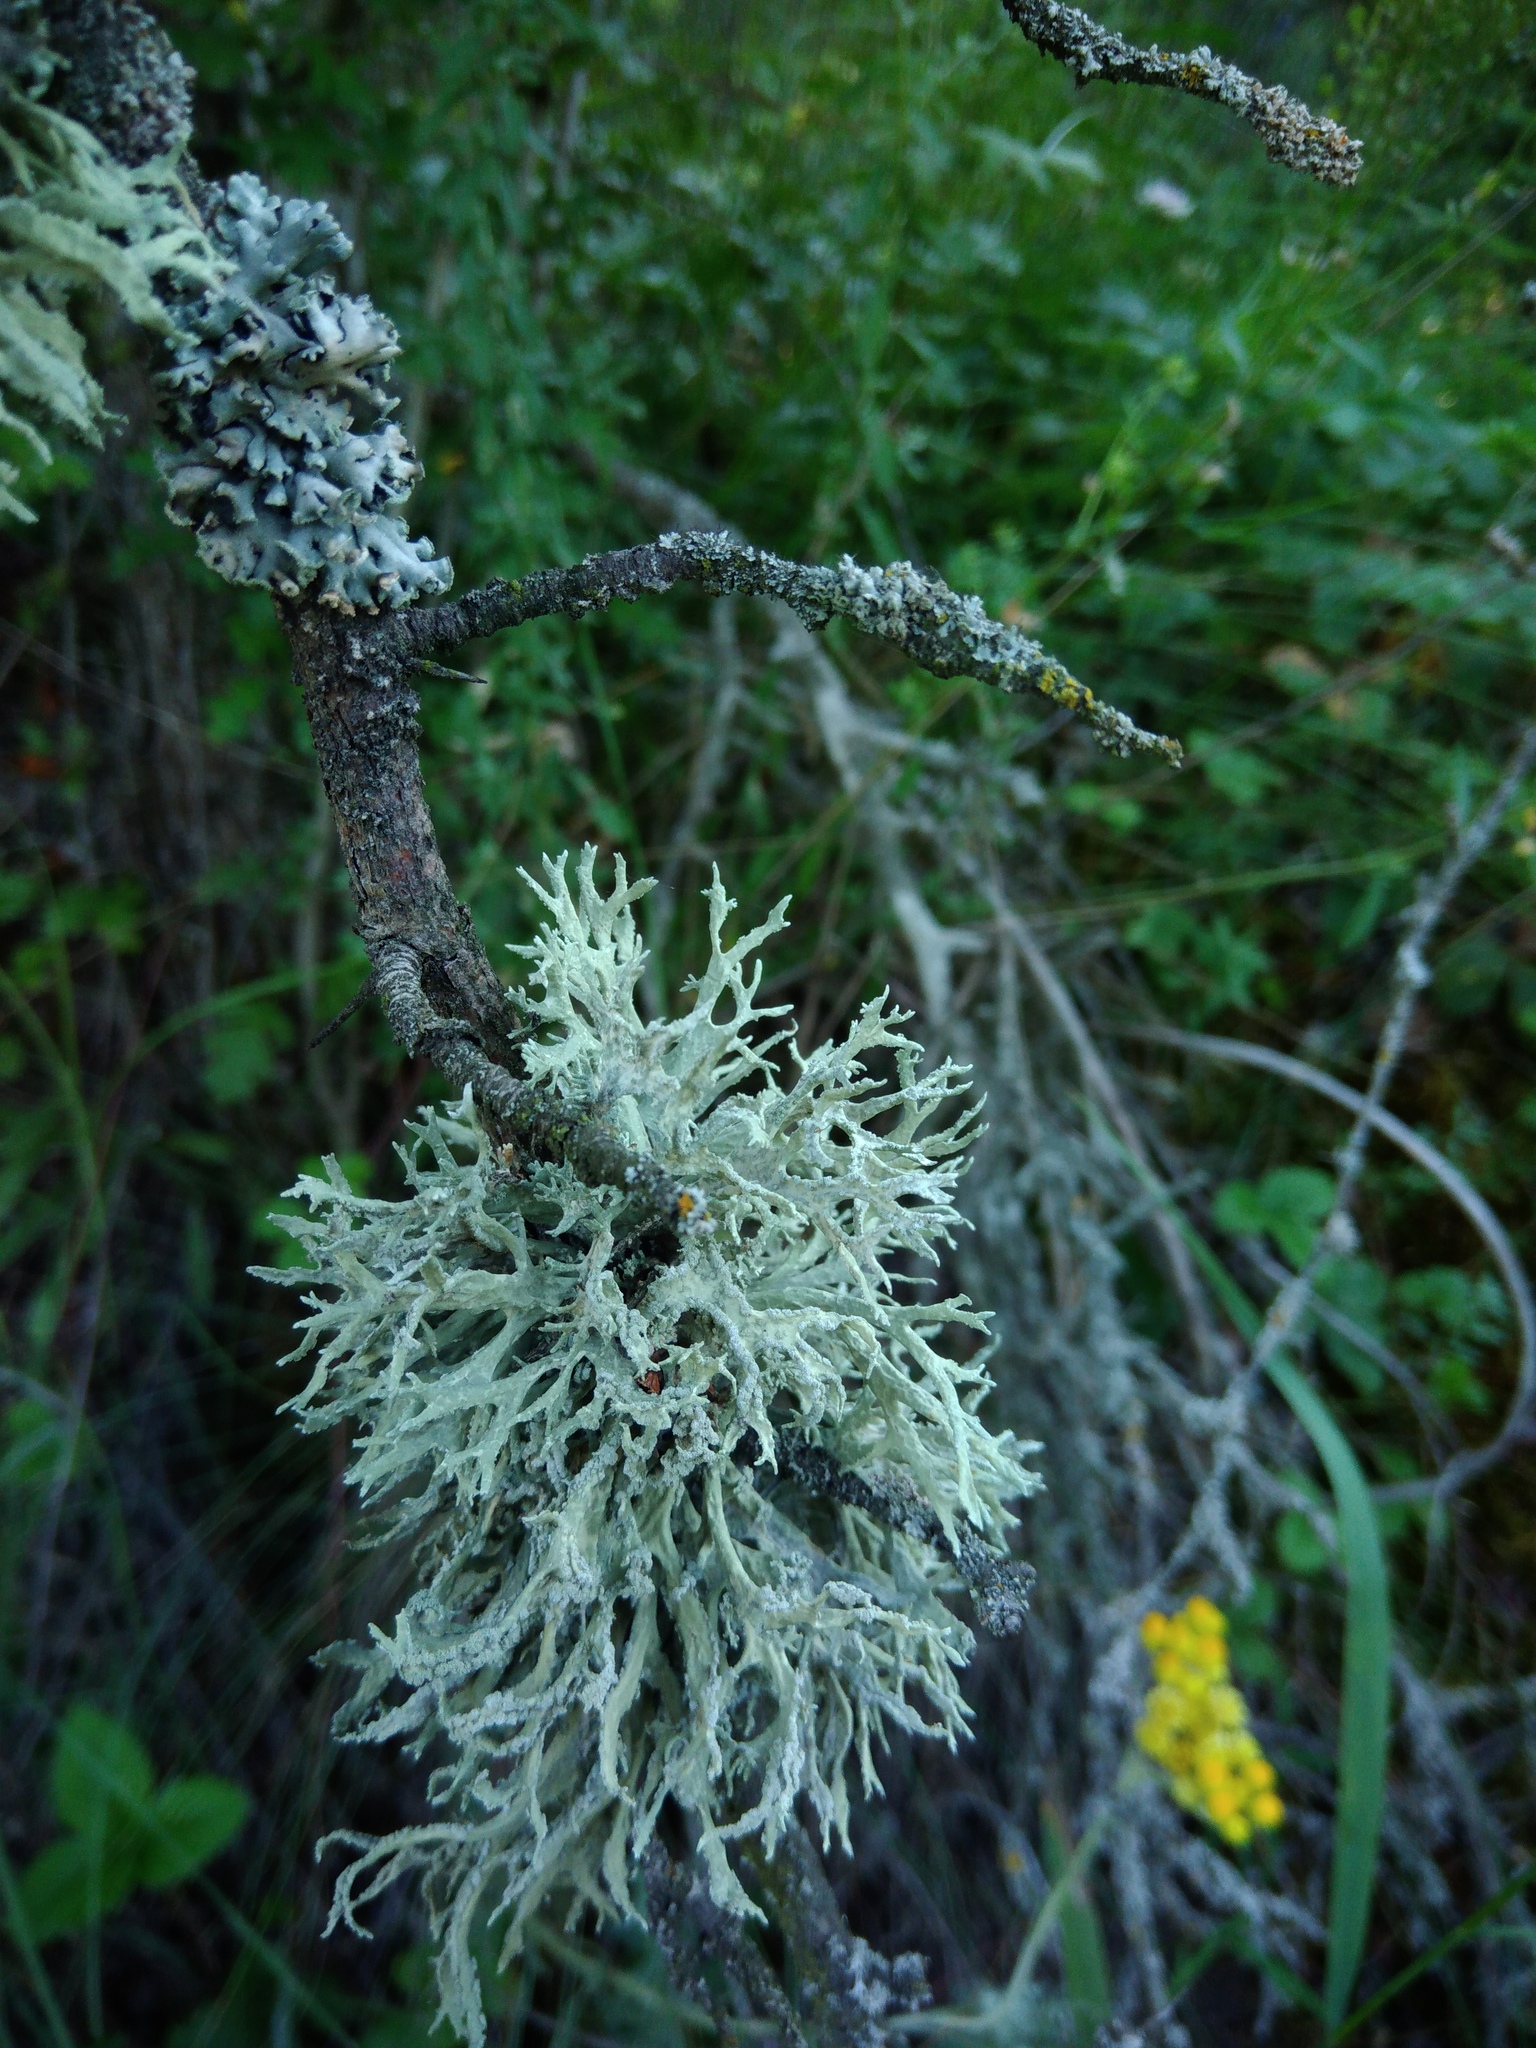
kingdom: Fungi
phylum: Ascomycota
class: Lecanoromycetes
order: Lecanorales
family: Parmeliaceae
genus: Evernia
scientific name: Evernia prunastri
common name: Oak moss
